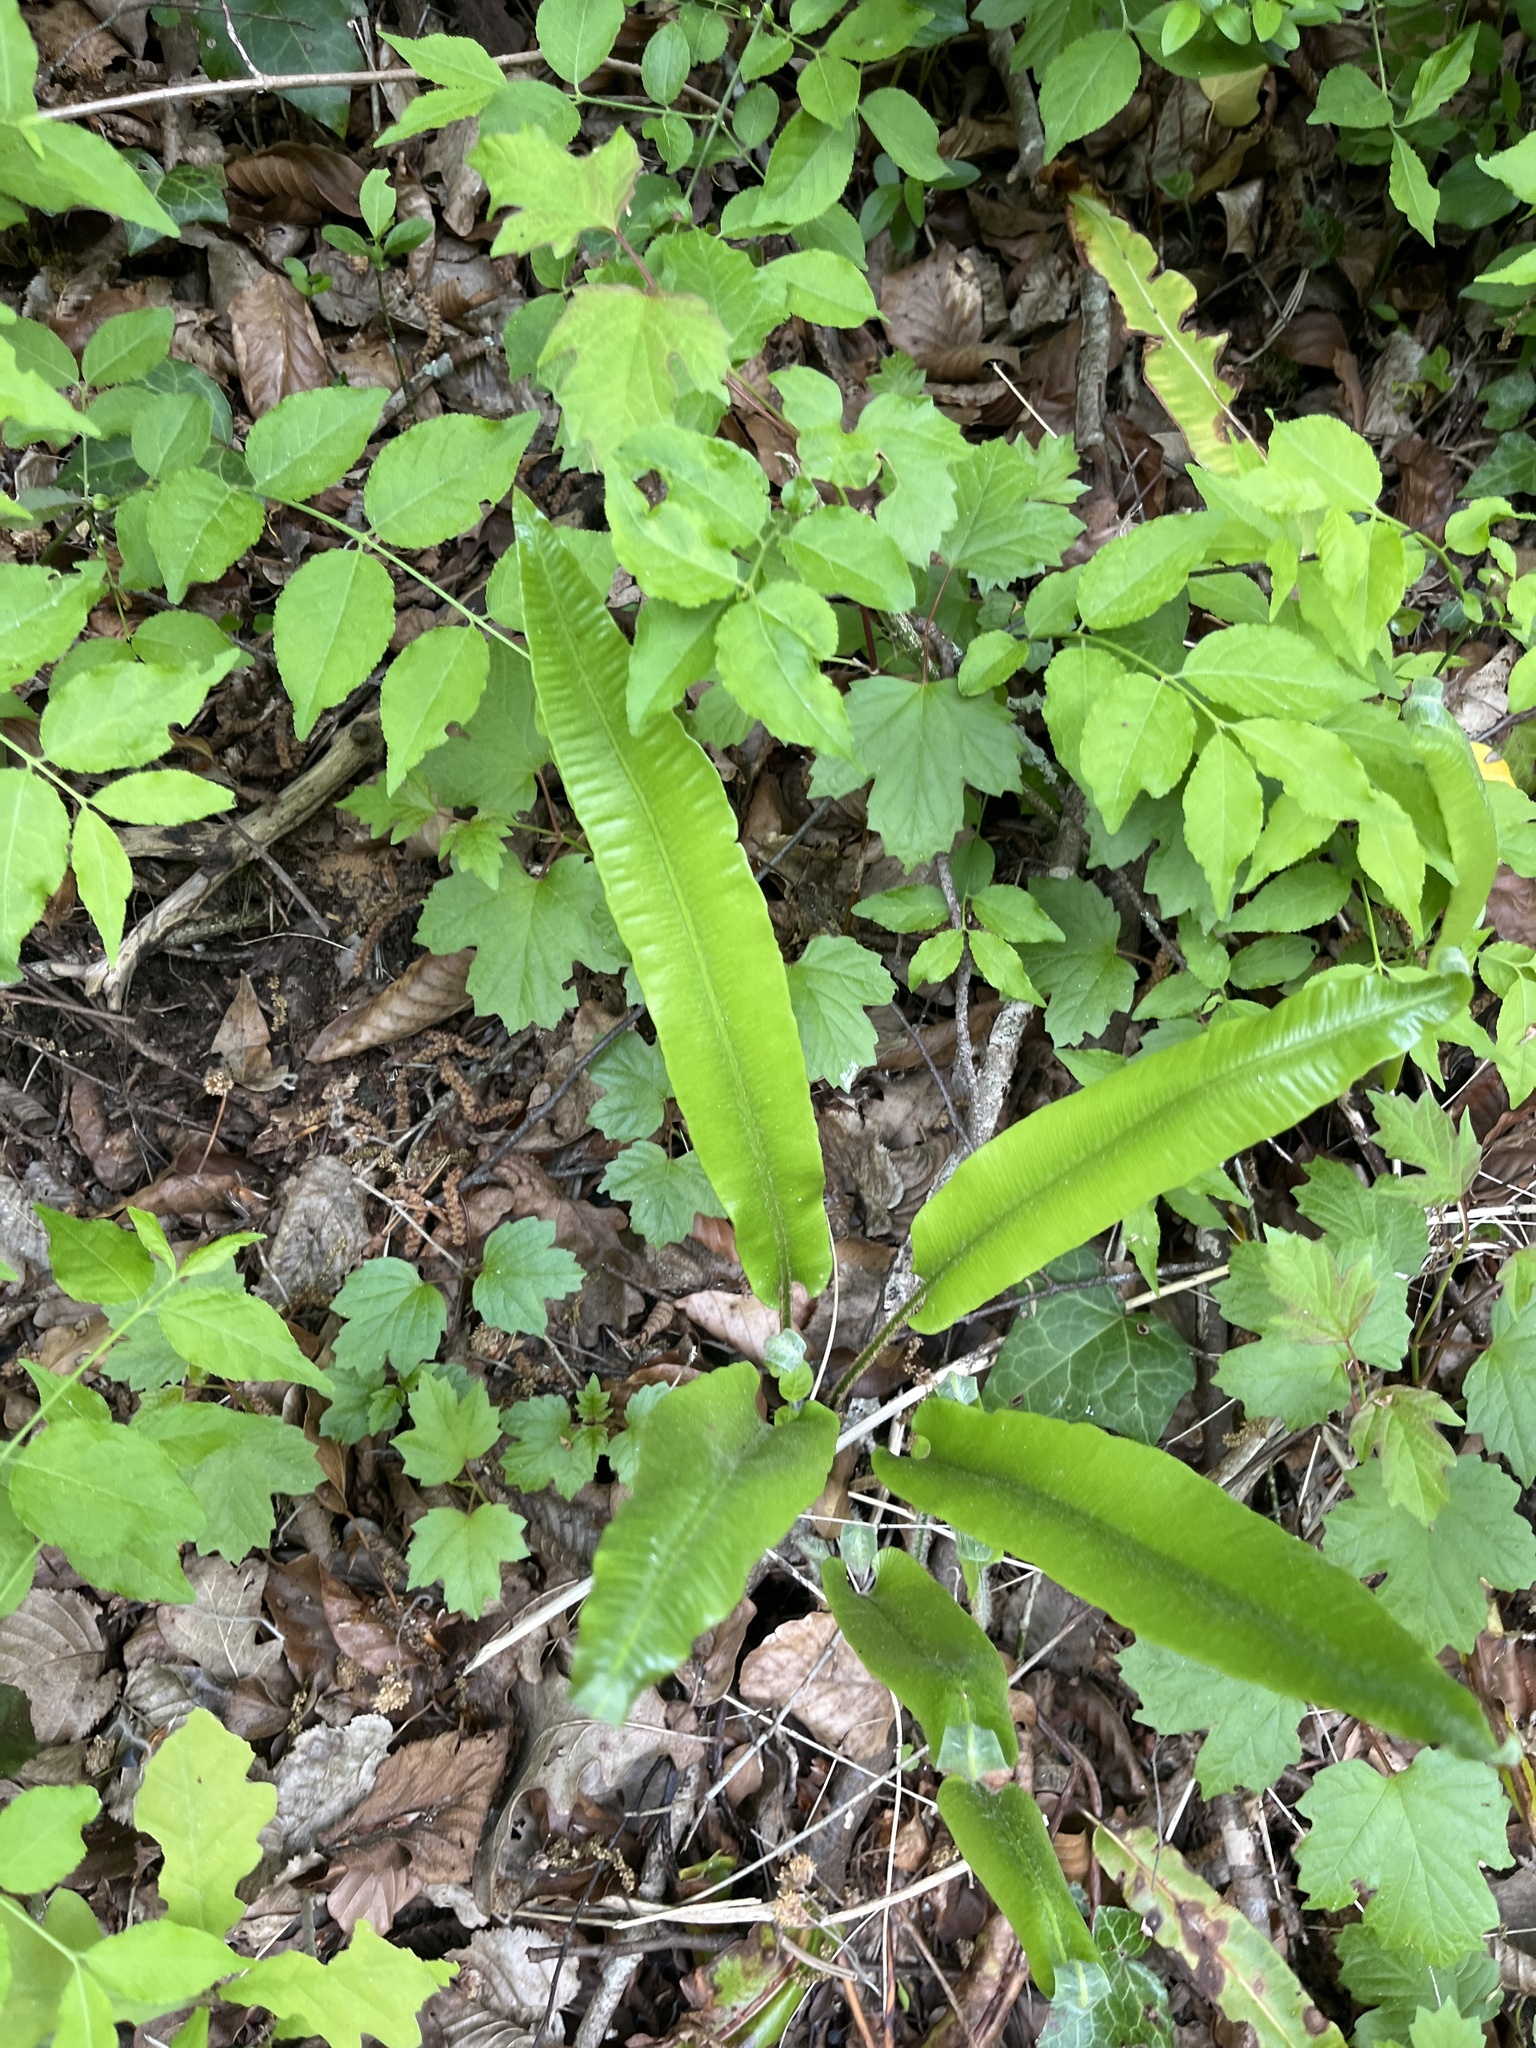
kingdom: Plantae
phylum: Tracheophyta
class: Polypodiopsida
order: Polypodiales
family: Aspleniaceae
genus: Asplenium
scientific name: Asplenium scolopendrium
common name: Hart's-tongue fern
